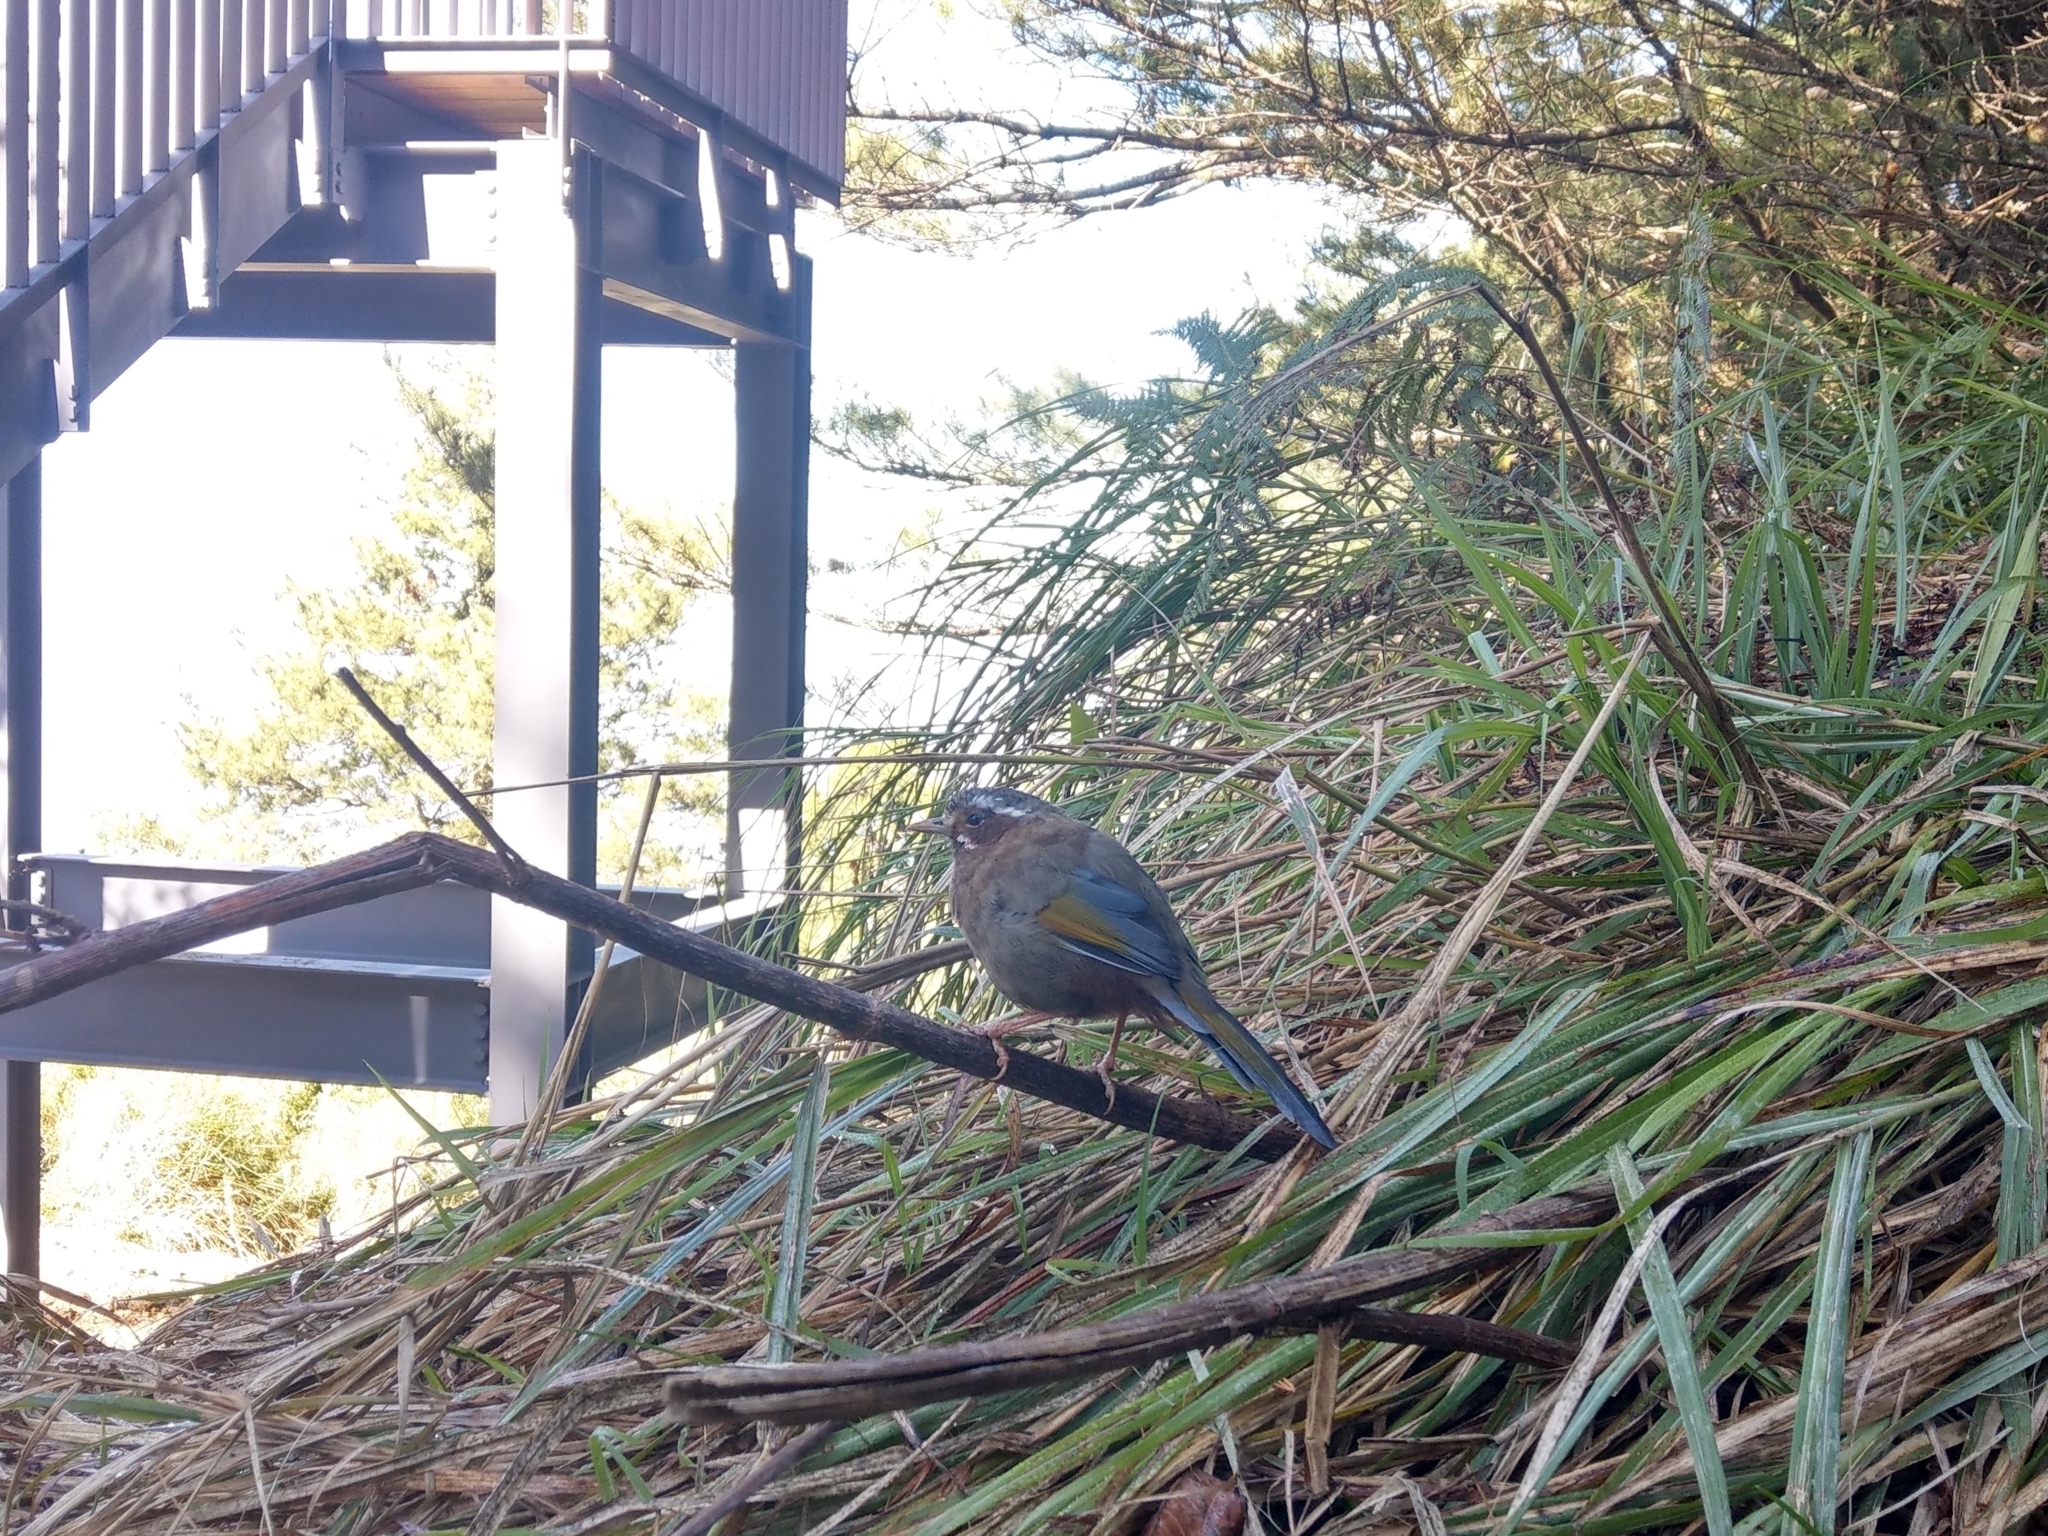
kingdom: Animalia
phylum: Chordata
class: Aves
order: Passeriformes
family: Leiothrichidae
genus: Trochalopteron
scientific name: Trochalopteron morrisonianum
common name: White-whiskered laughingthrush
